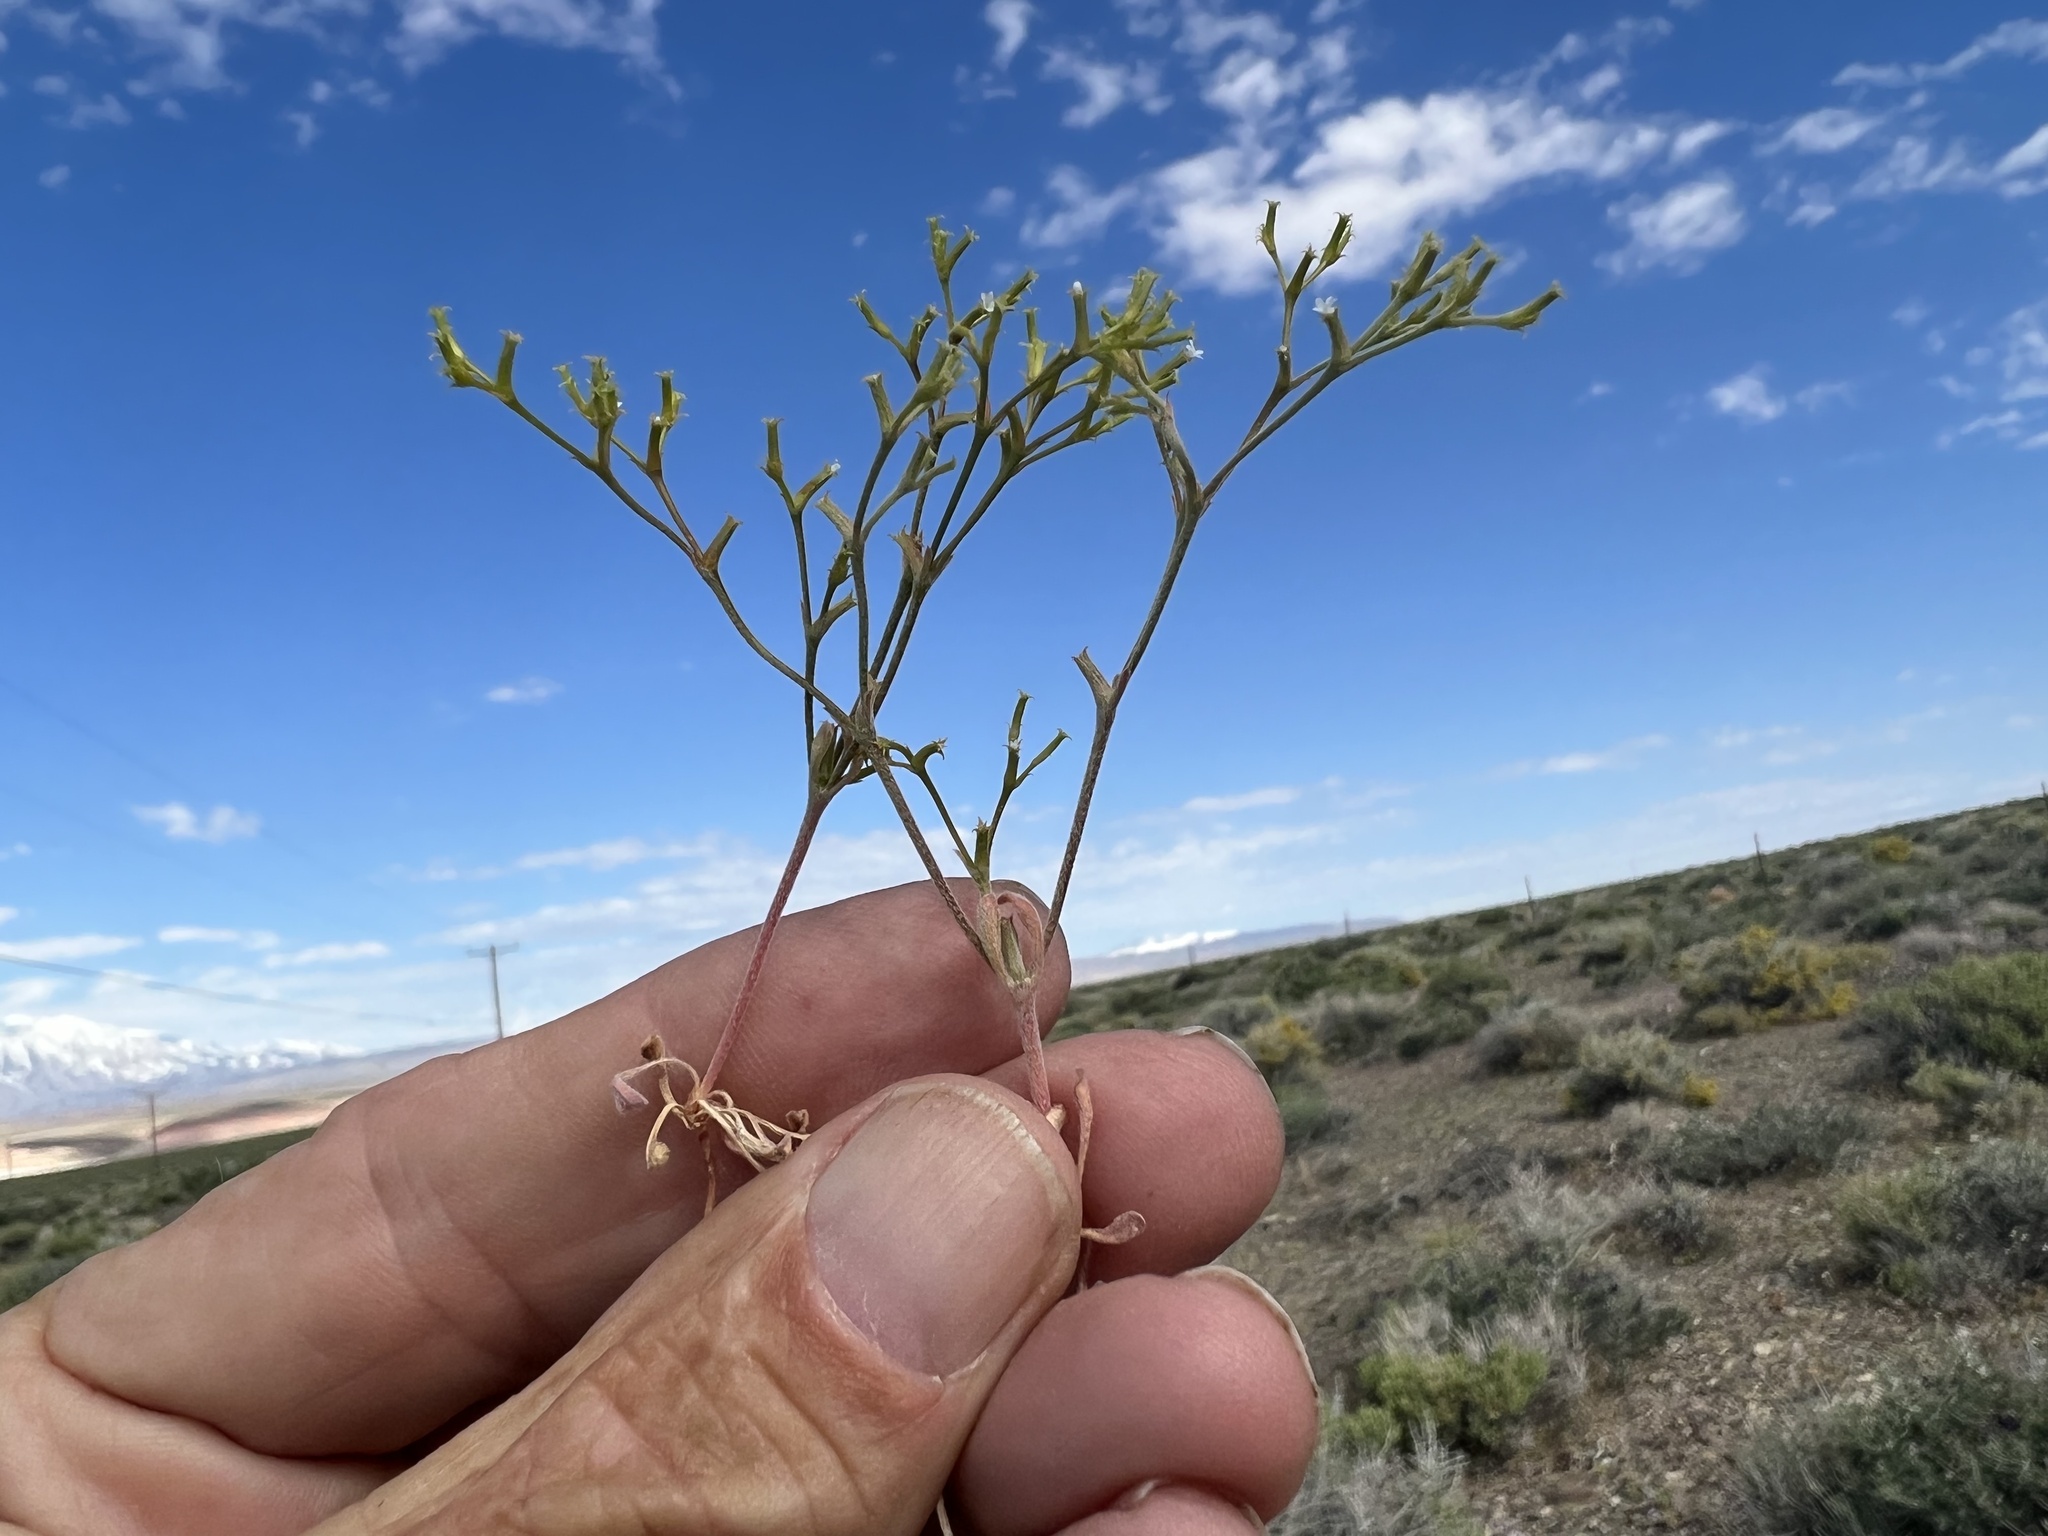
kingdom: Plantae
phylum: Tracheophyta
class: Magnoliopsida
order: Caryophyllales
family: Polygonaceae
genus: Chorizanthe
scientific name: Chorizanthe brevicornu
